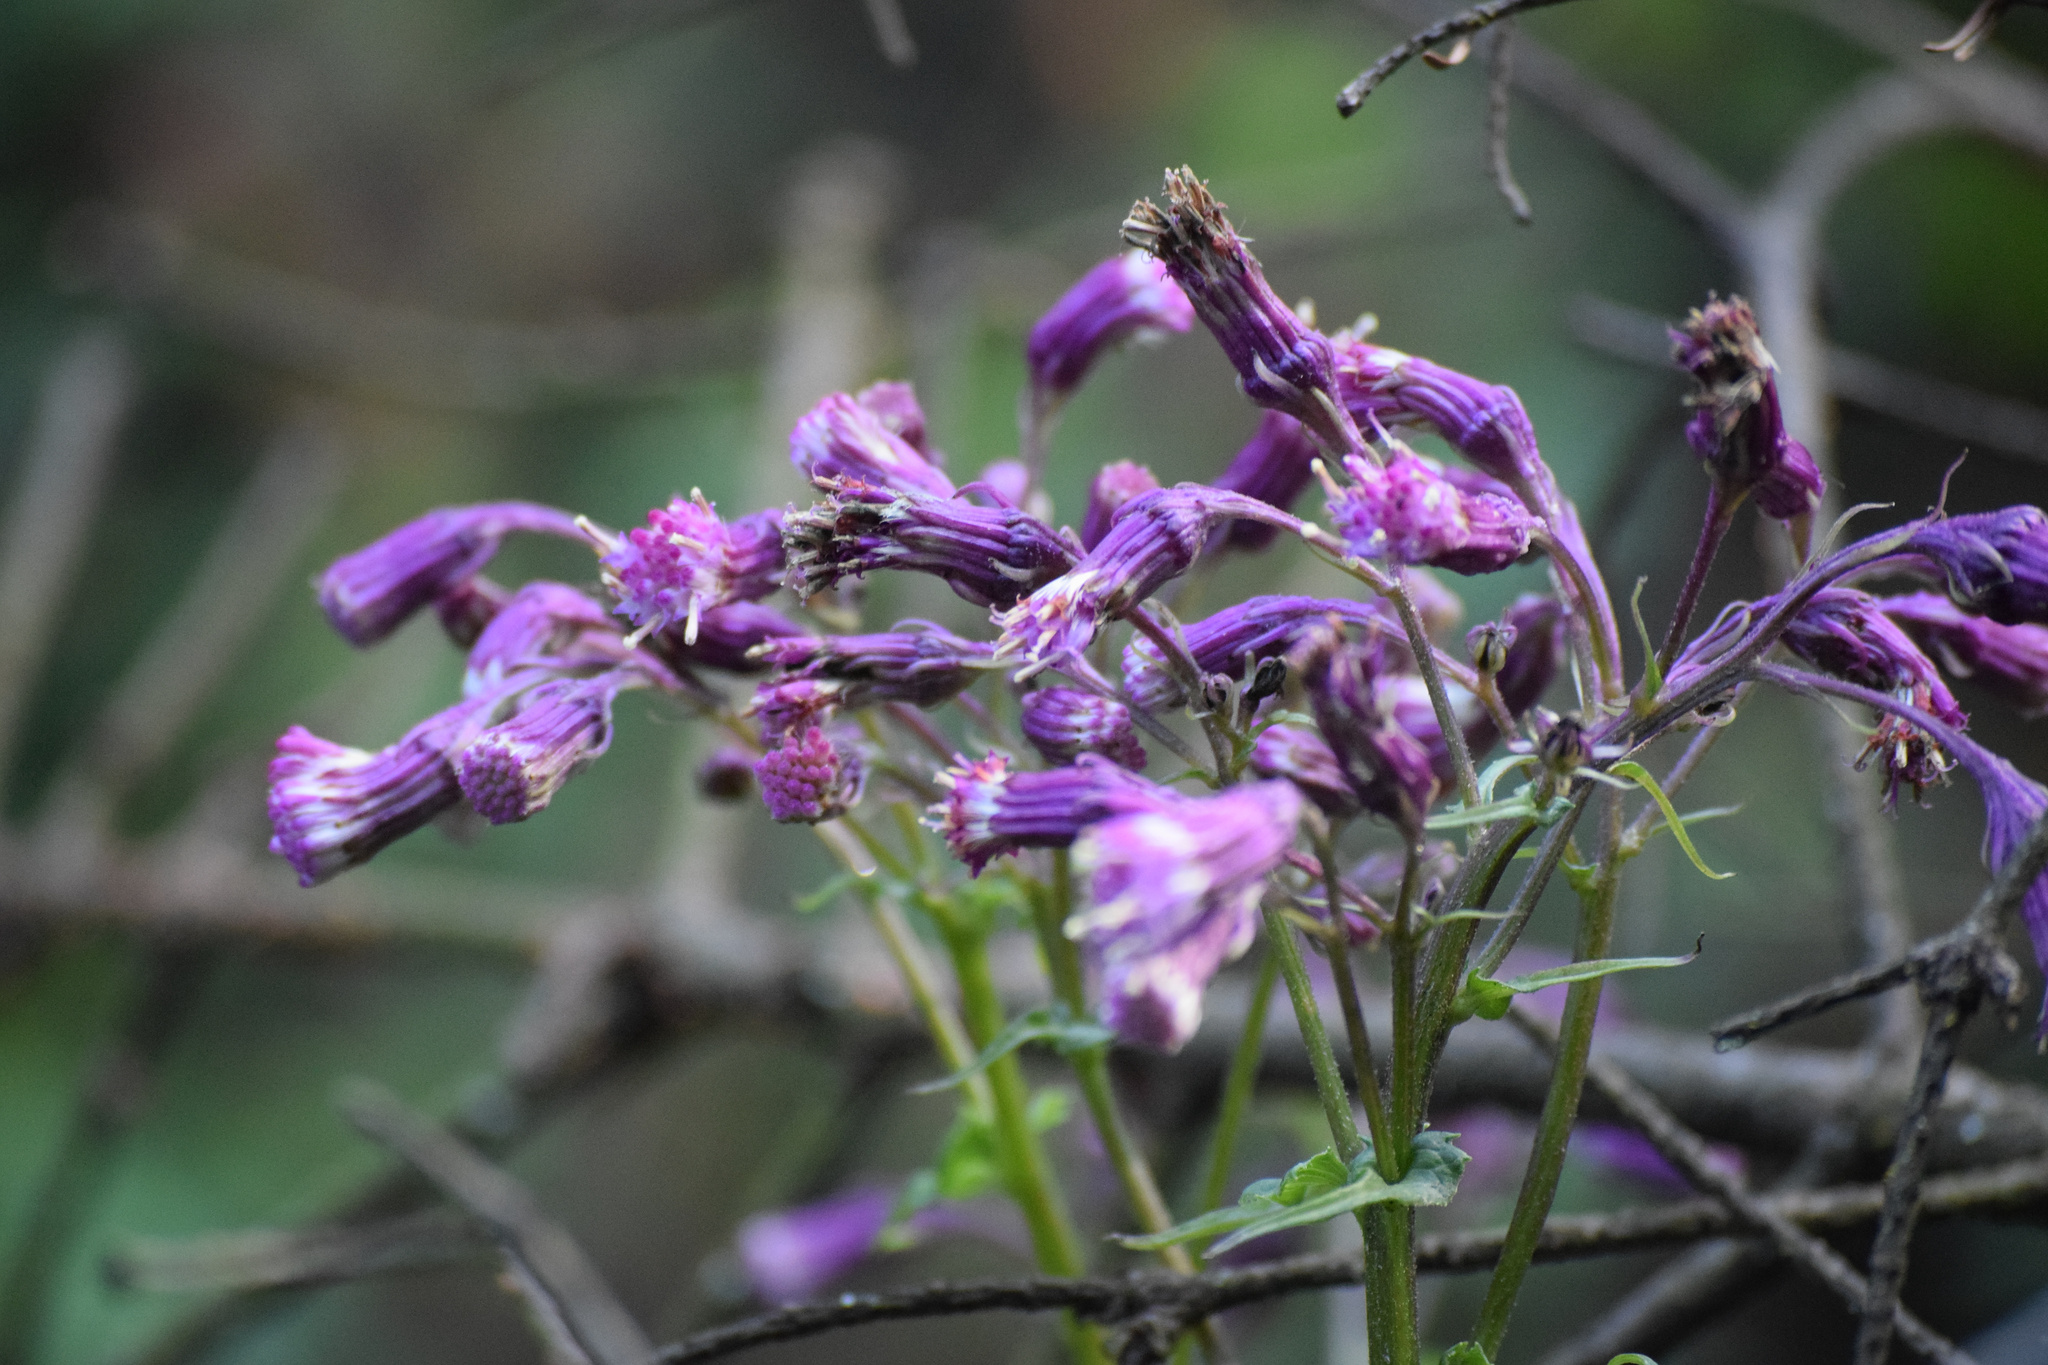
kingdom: Plantae
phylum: Tracheophyta
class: Magnoliopsida
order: Asterales
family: Asteraceae
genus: Senecio
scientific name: Senecio callosus
